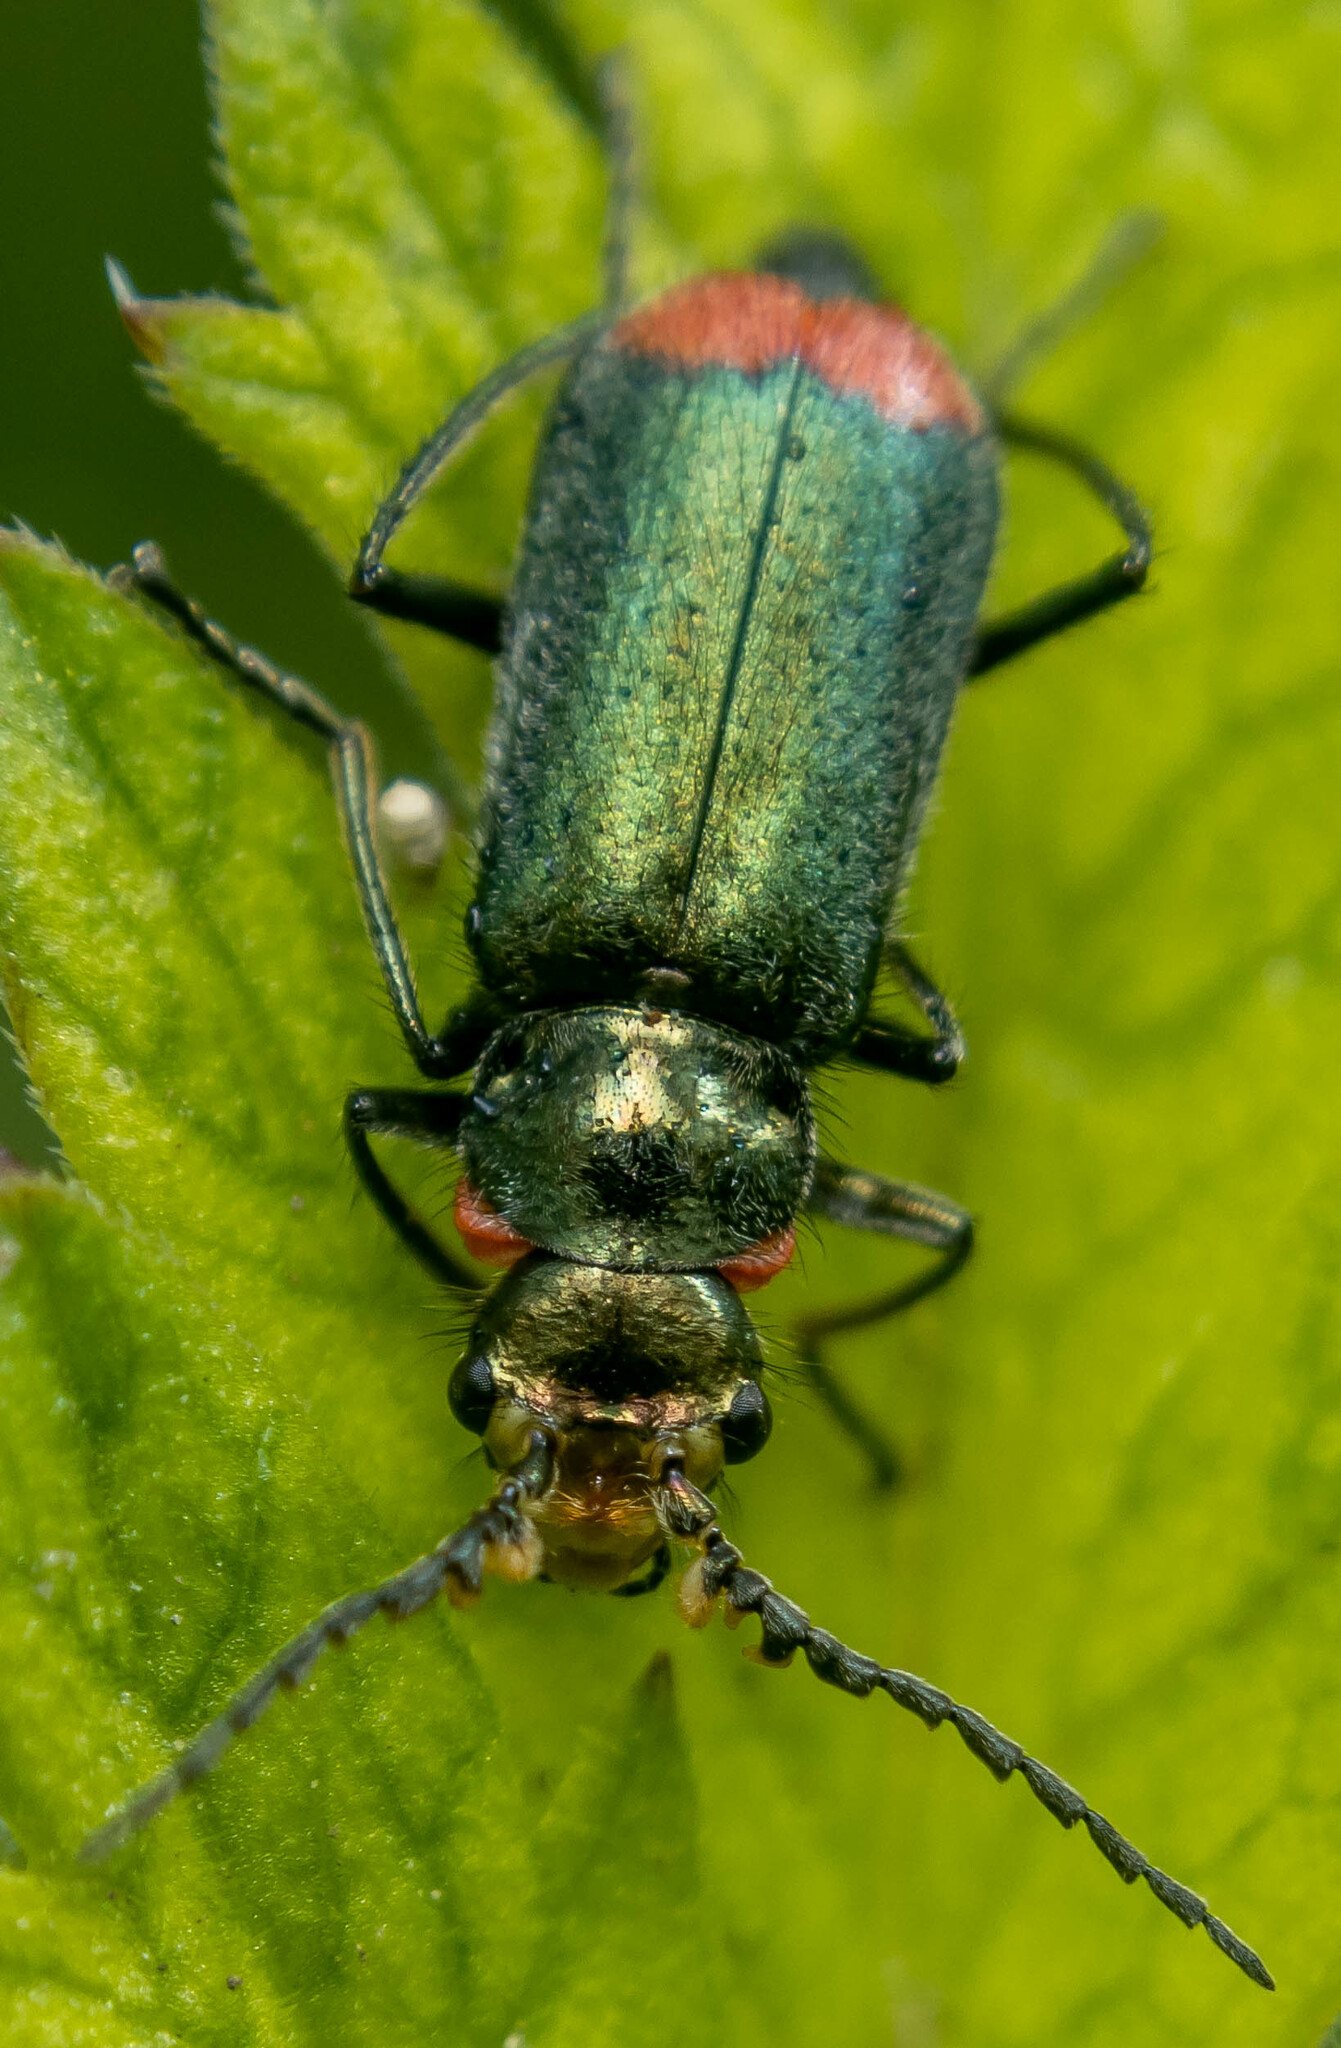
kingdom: Animalia
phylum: Arthropoda
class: Insecta
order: Coleoptera
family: Melyridae
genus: Malachius
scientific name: Malachius bipustulatus
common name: Malachite beetle
